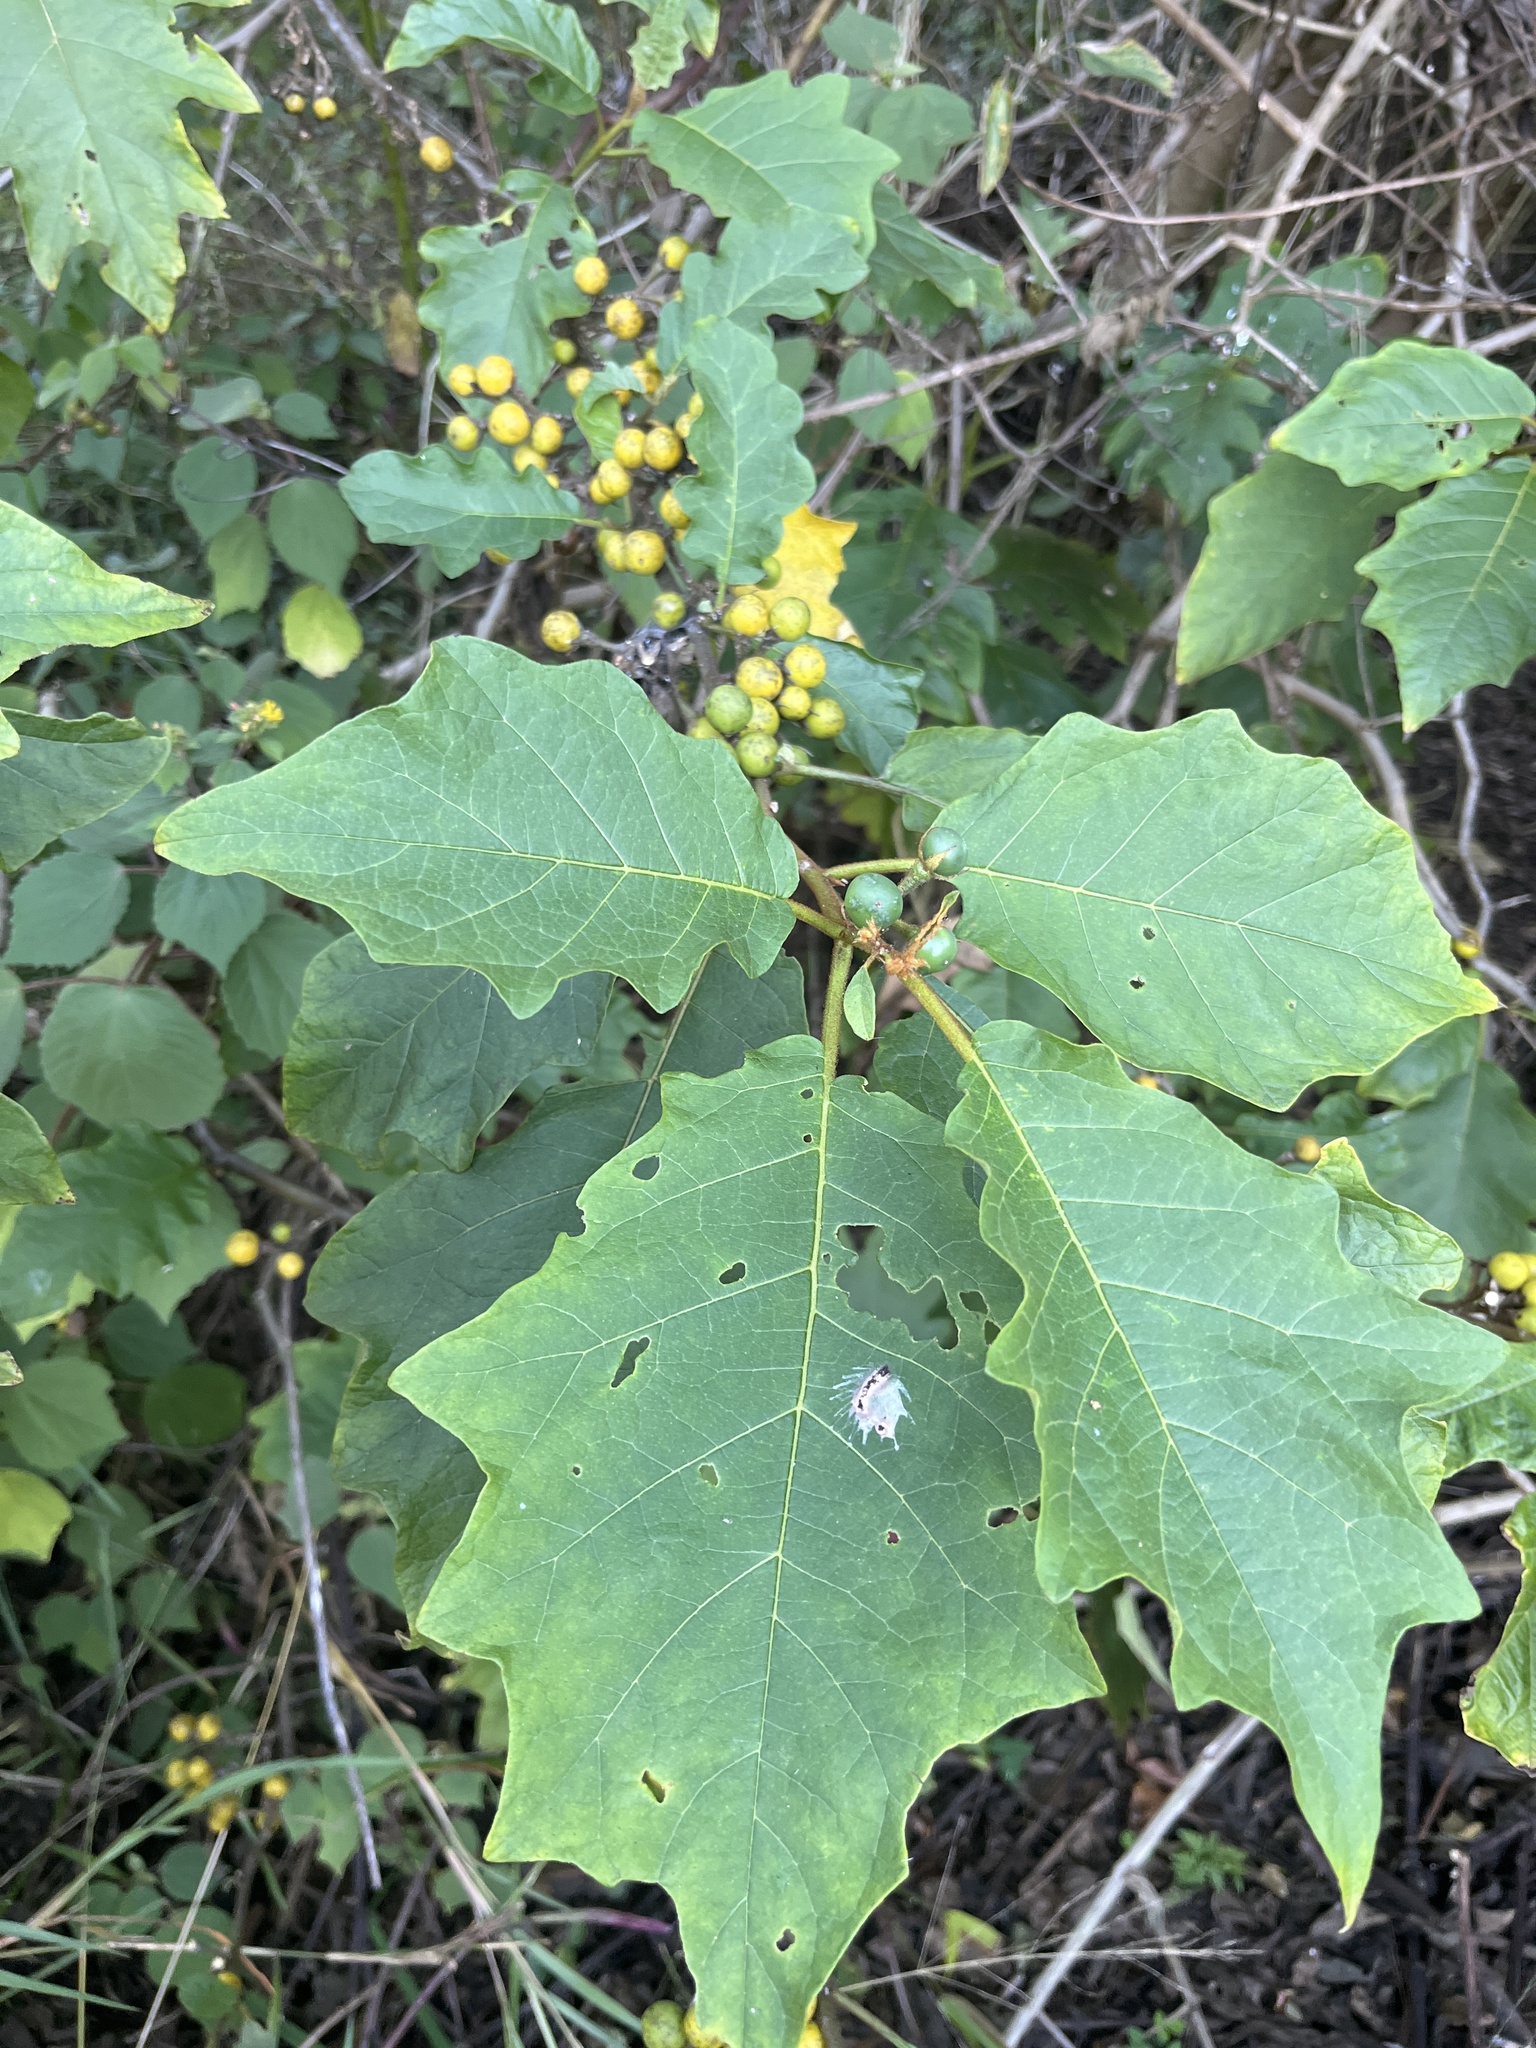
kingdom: Plantae
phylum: Tracheophyta
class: Magnoliopsida
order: Solanales
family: Solanaceae
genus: Solanum
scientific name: Solanum chrysotrichum
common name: Nightshade
